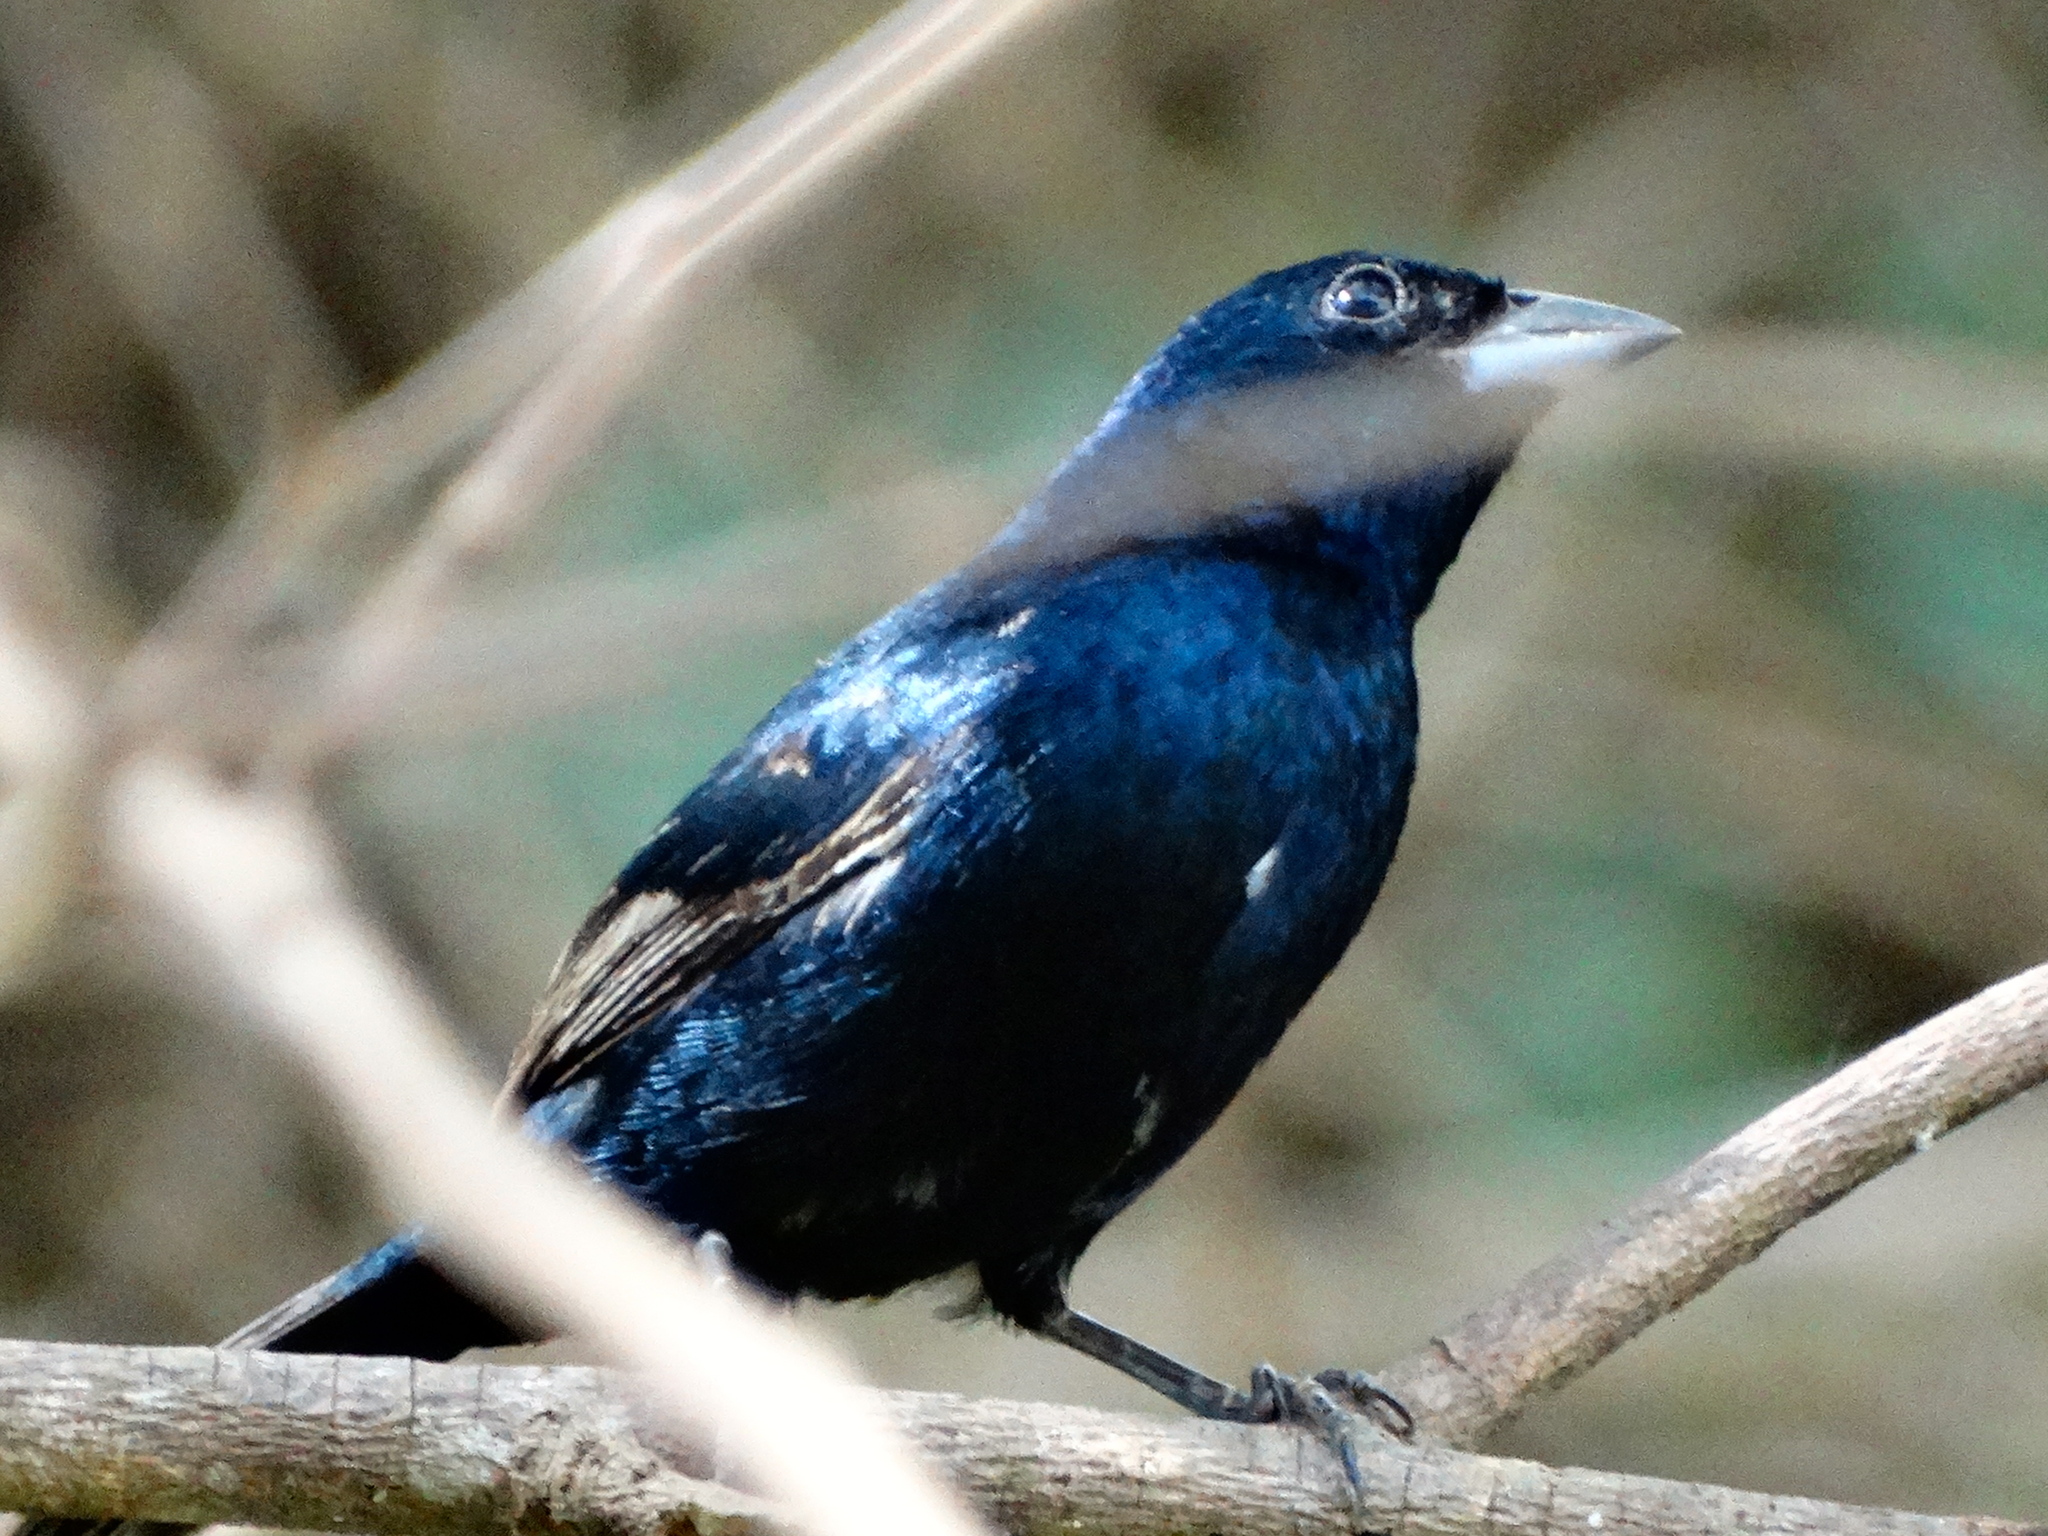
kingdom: Animalia
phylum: Chordata
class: Aves
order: Passeriformes
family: Thraupidae
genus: Volatinia
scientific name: Volatinia jacarina
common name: Blue-black grassquit
